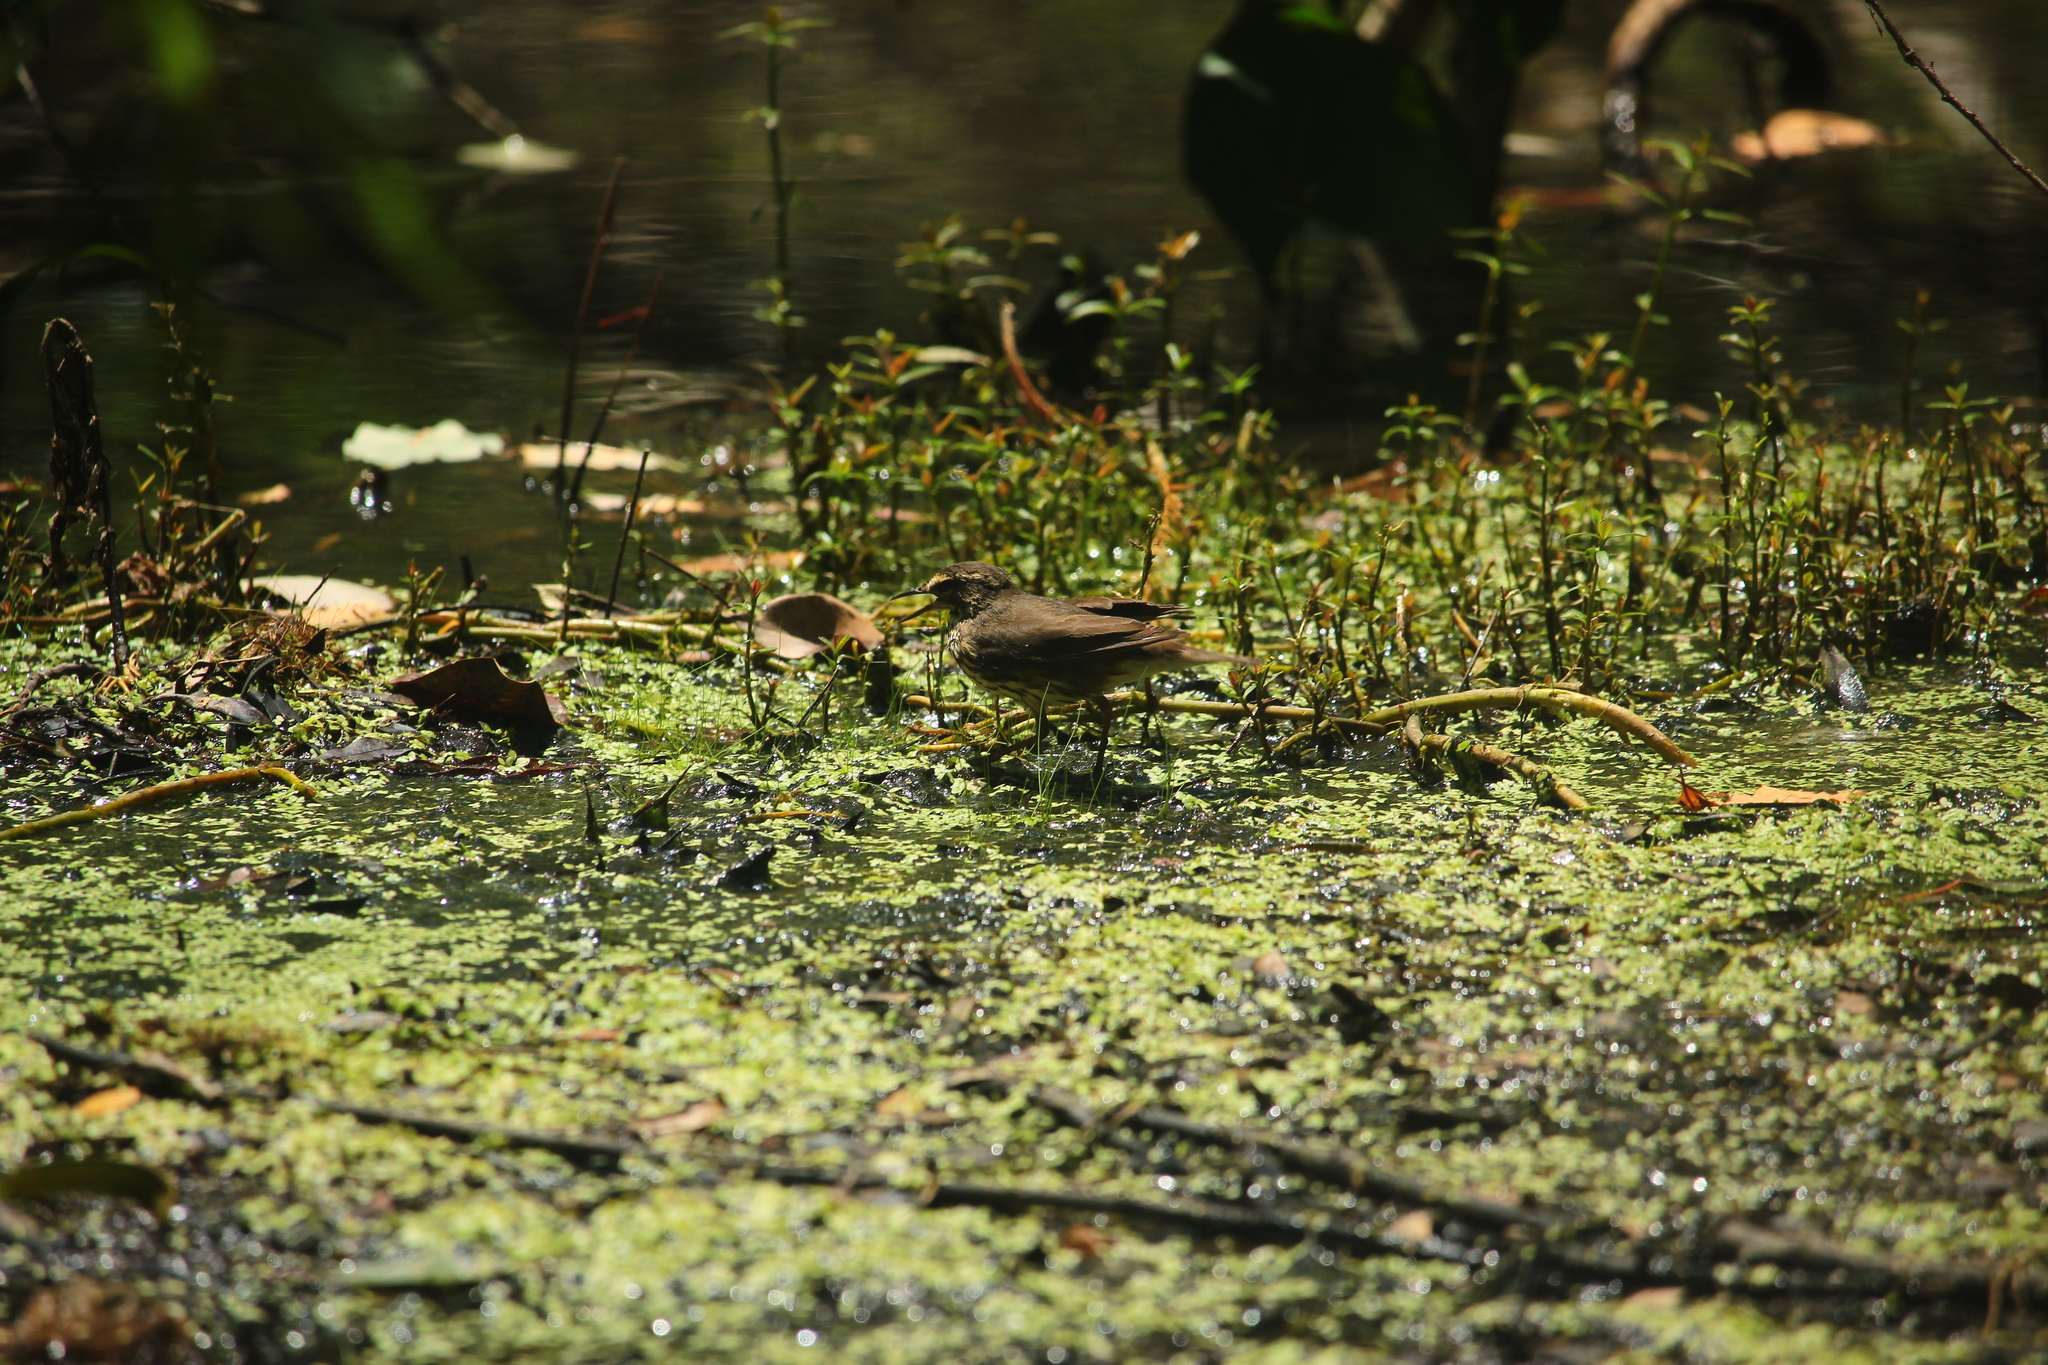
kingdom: Animalia
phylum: Chordata
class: Aves
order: Passeriformes
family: Parulidae
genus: Parkesia
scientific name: Parkesia noveboracensis
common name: Northern waterthrush
